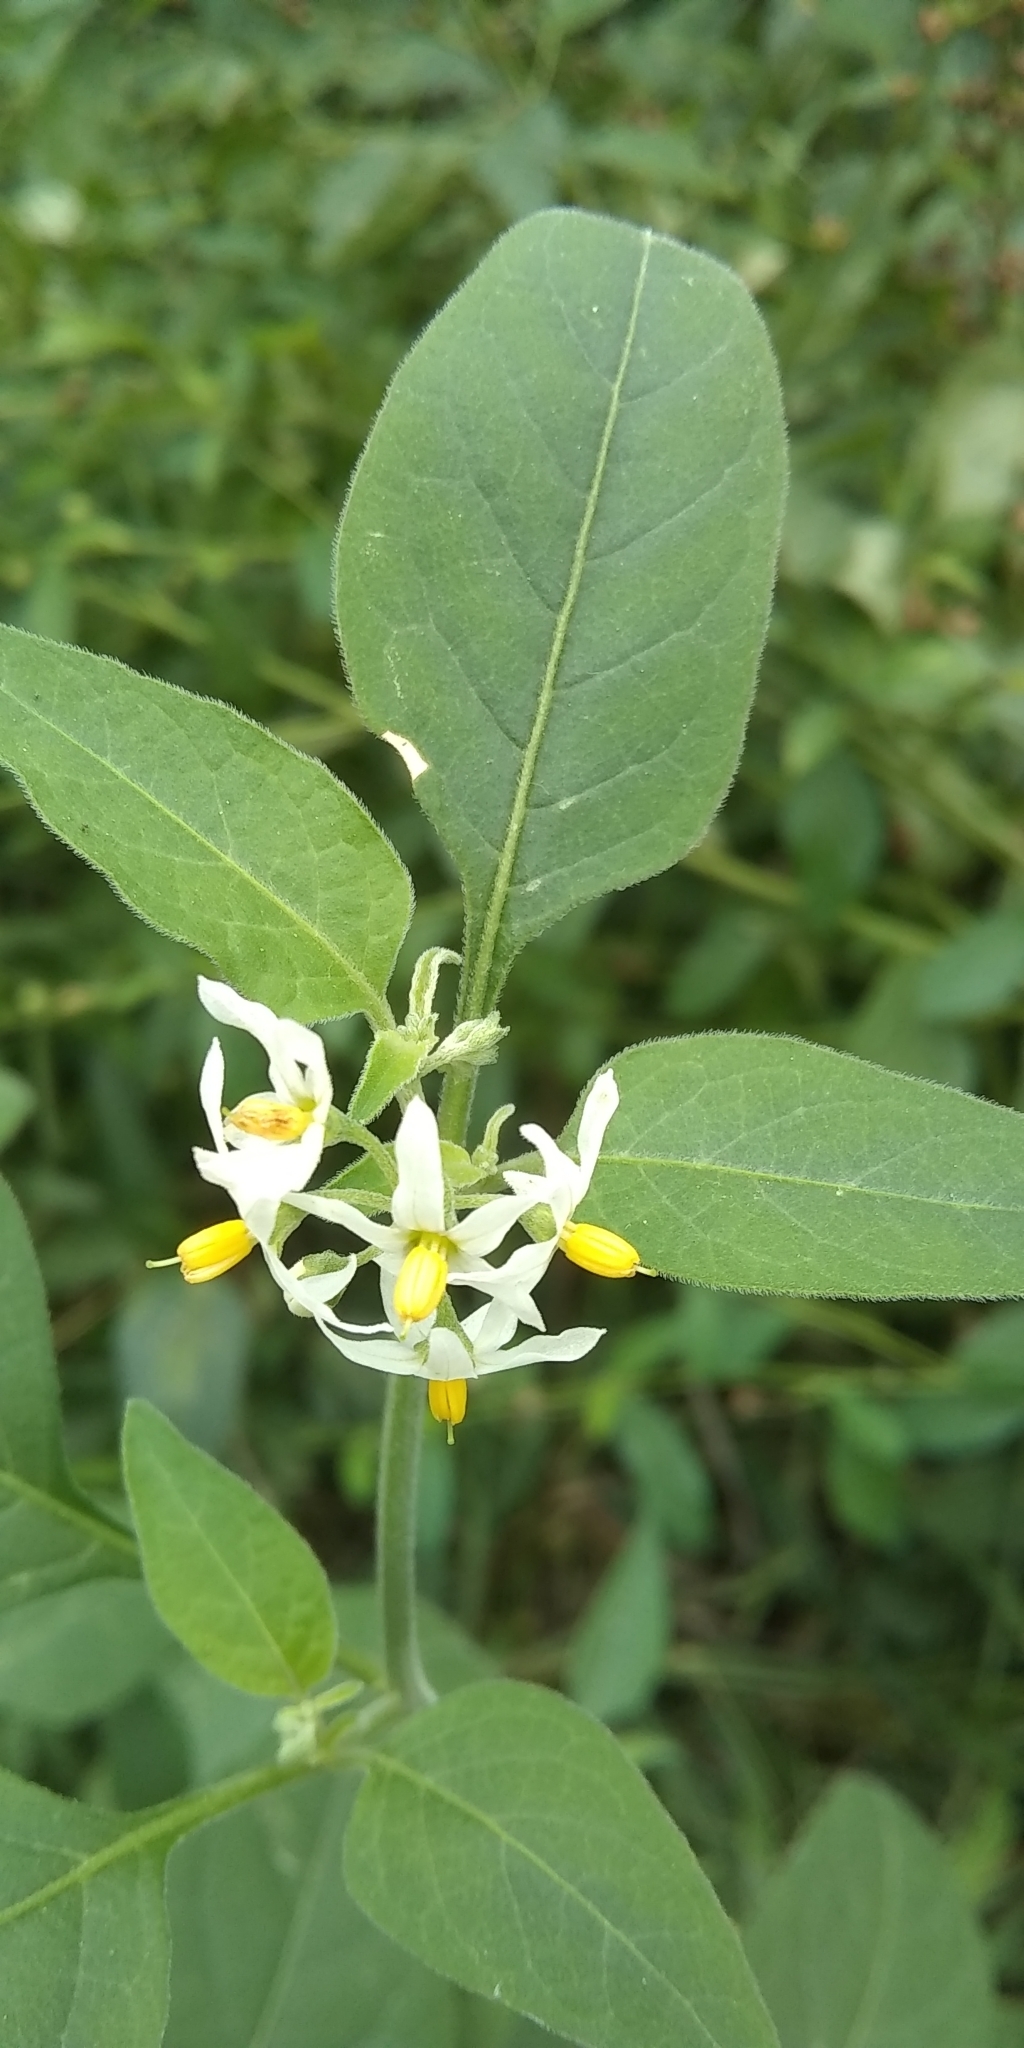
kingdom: Plantae
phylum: Tracheophyta
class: Magnoliopsida
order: Solanales
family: Solanaceae
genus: Solanum
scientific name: Solanum chenopodioides
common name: Tall nightshade
